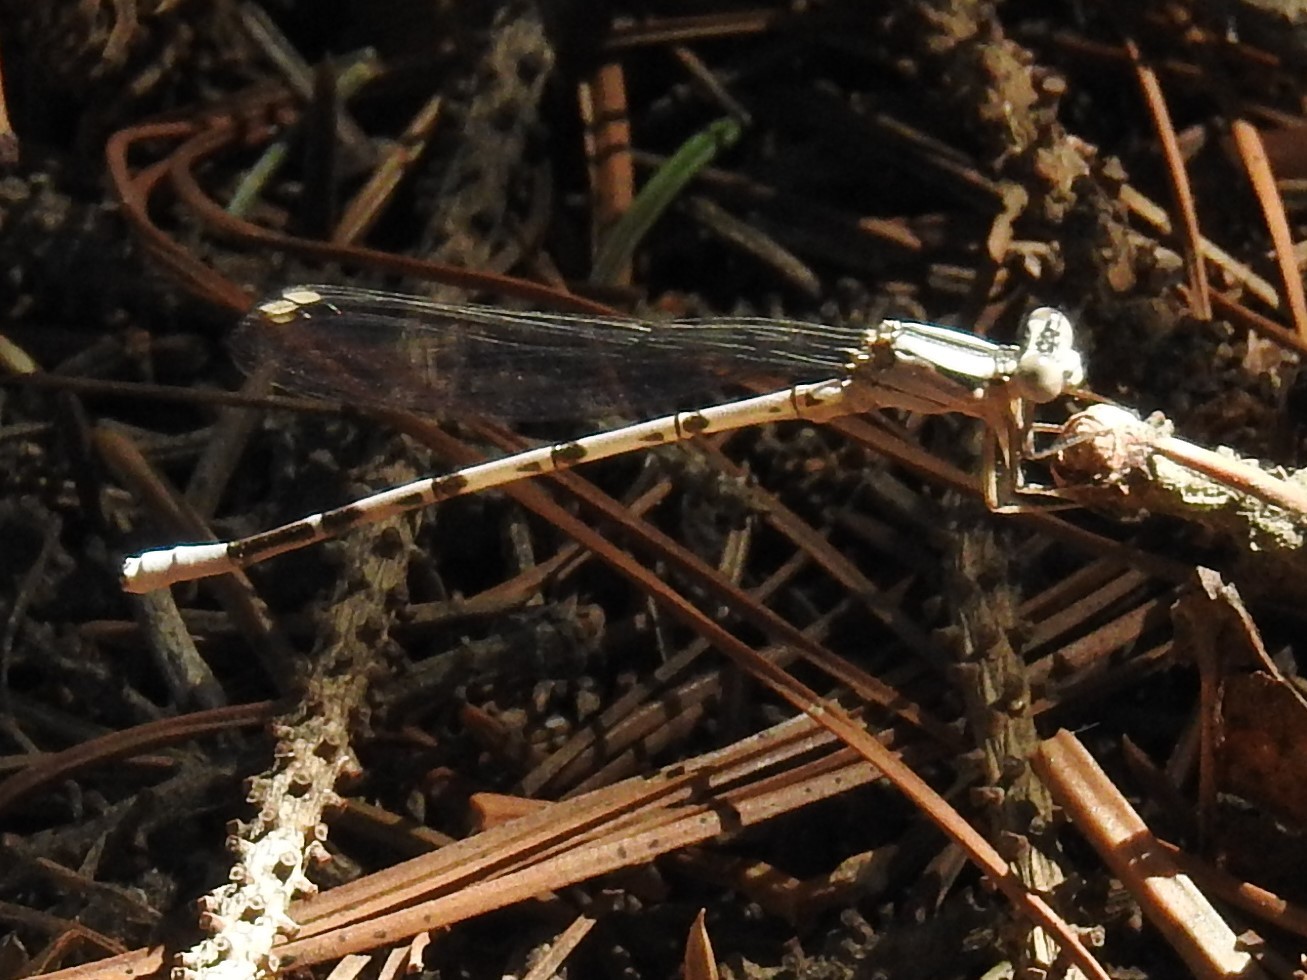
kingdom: Animalia
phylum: Arthropoda
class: Insecta
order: Odonata
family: Coenagrionidae
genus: Argia
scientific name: Argia vivida
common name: Vivid dancer
